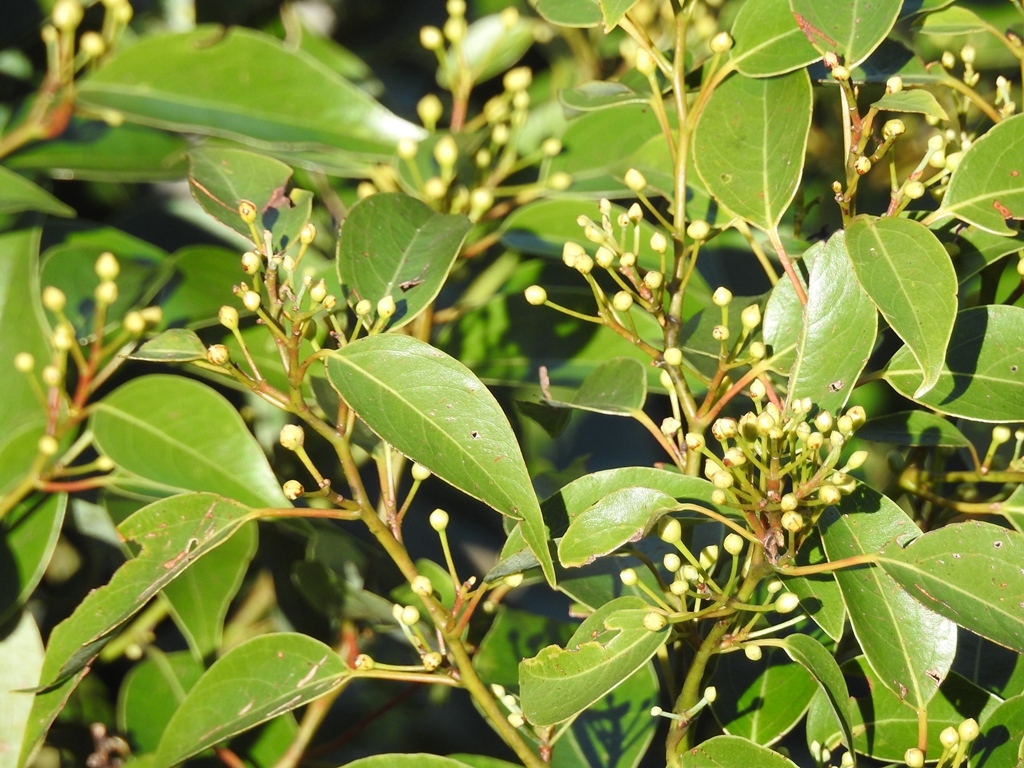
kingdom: Plantae
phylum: Tracheophyta
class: Magnoliopsida
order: Laurales
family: Lauraceae
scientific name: Lauraceae
